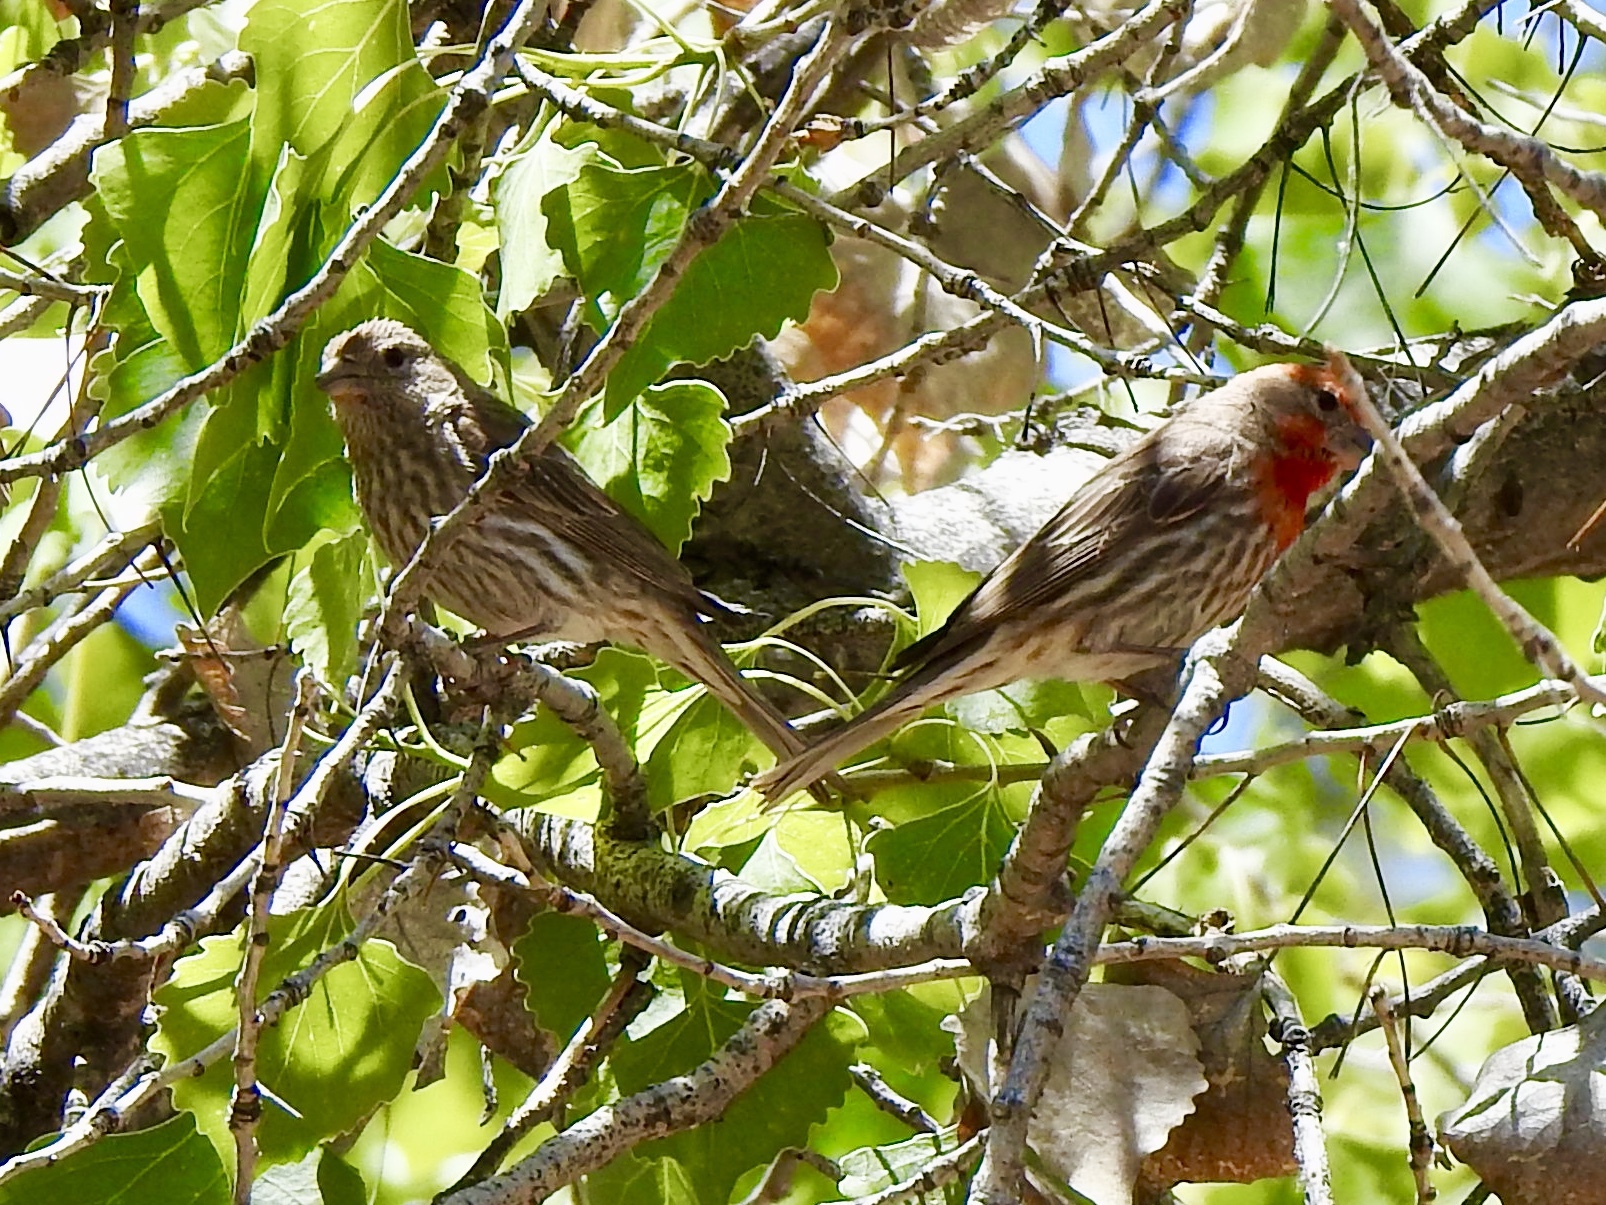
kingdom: Animalia
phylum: Chordata
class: Aves
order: Passeriformes
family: Fringillidae
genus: Haemorhous
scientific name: Haemorhous mexicanus
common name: House finch
